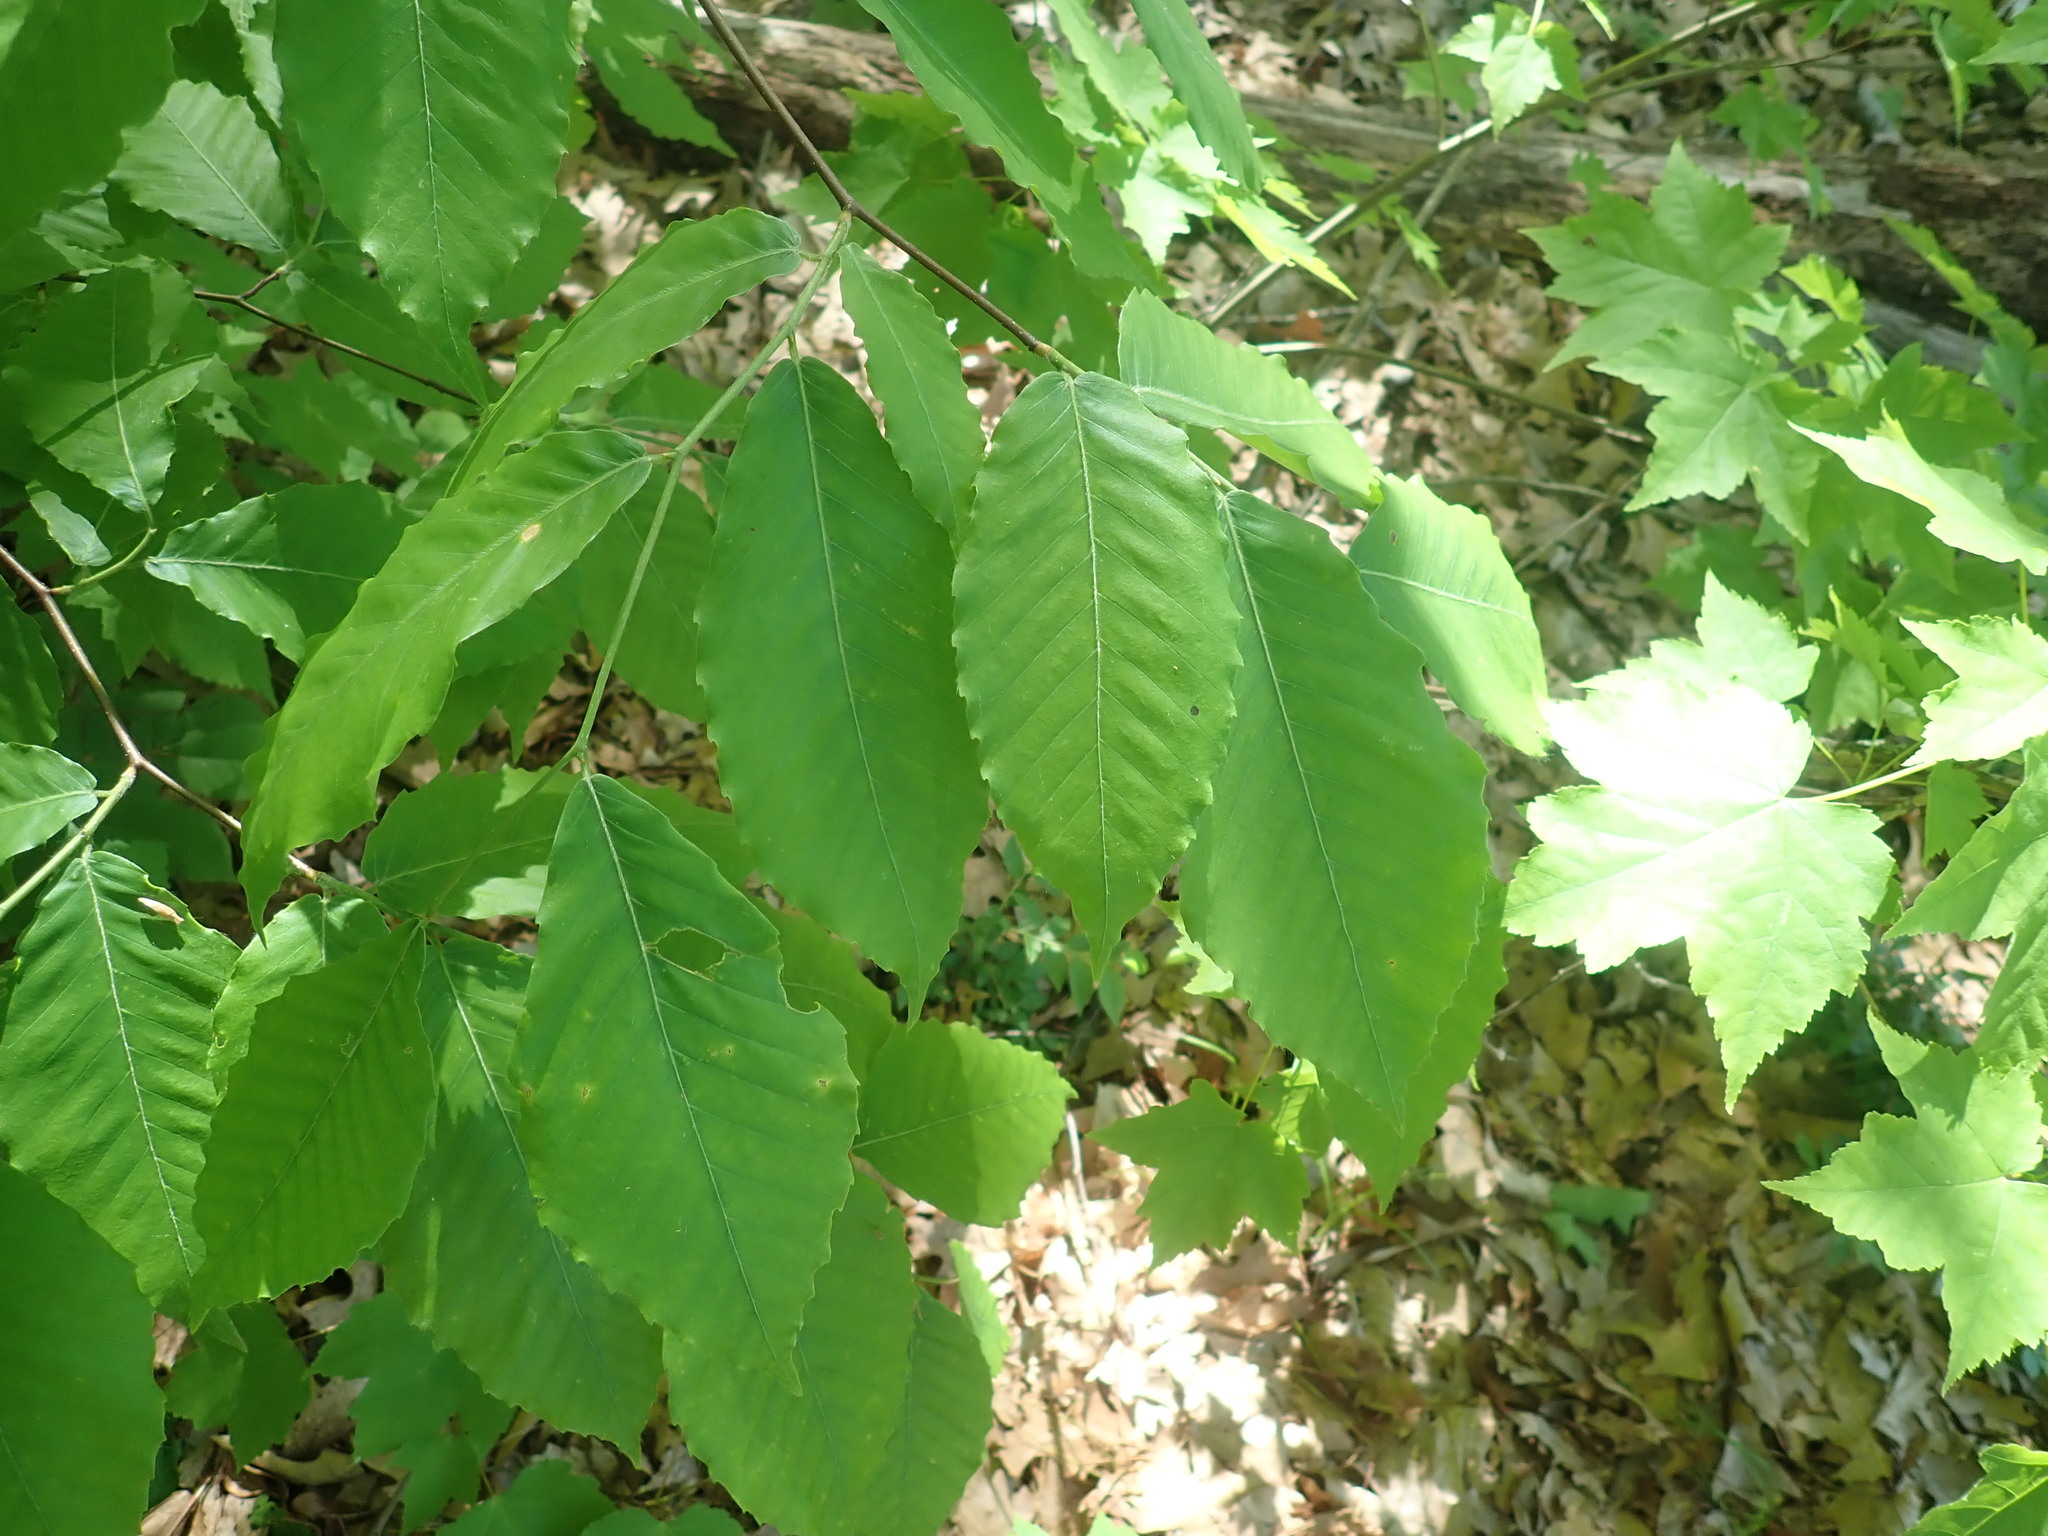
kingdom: Plantae
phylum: Tracheophyta
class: Magnoliopsida
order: Fagales
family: Fagaceae
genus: Fagus
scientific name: Fagus grandifolia
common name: American beech
